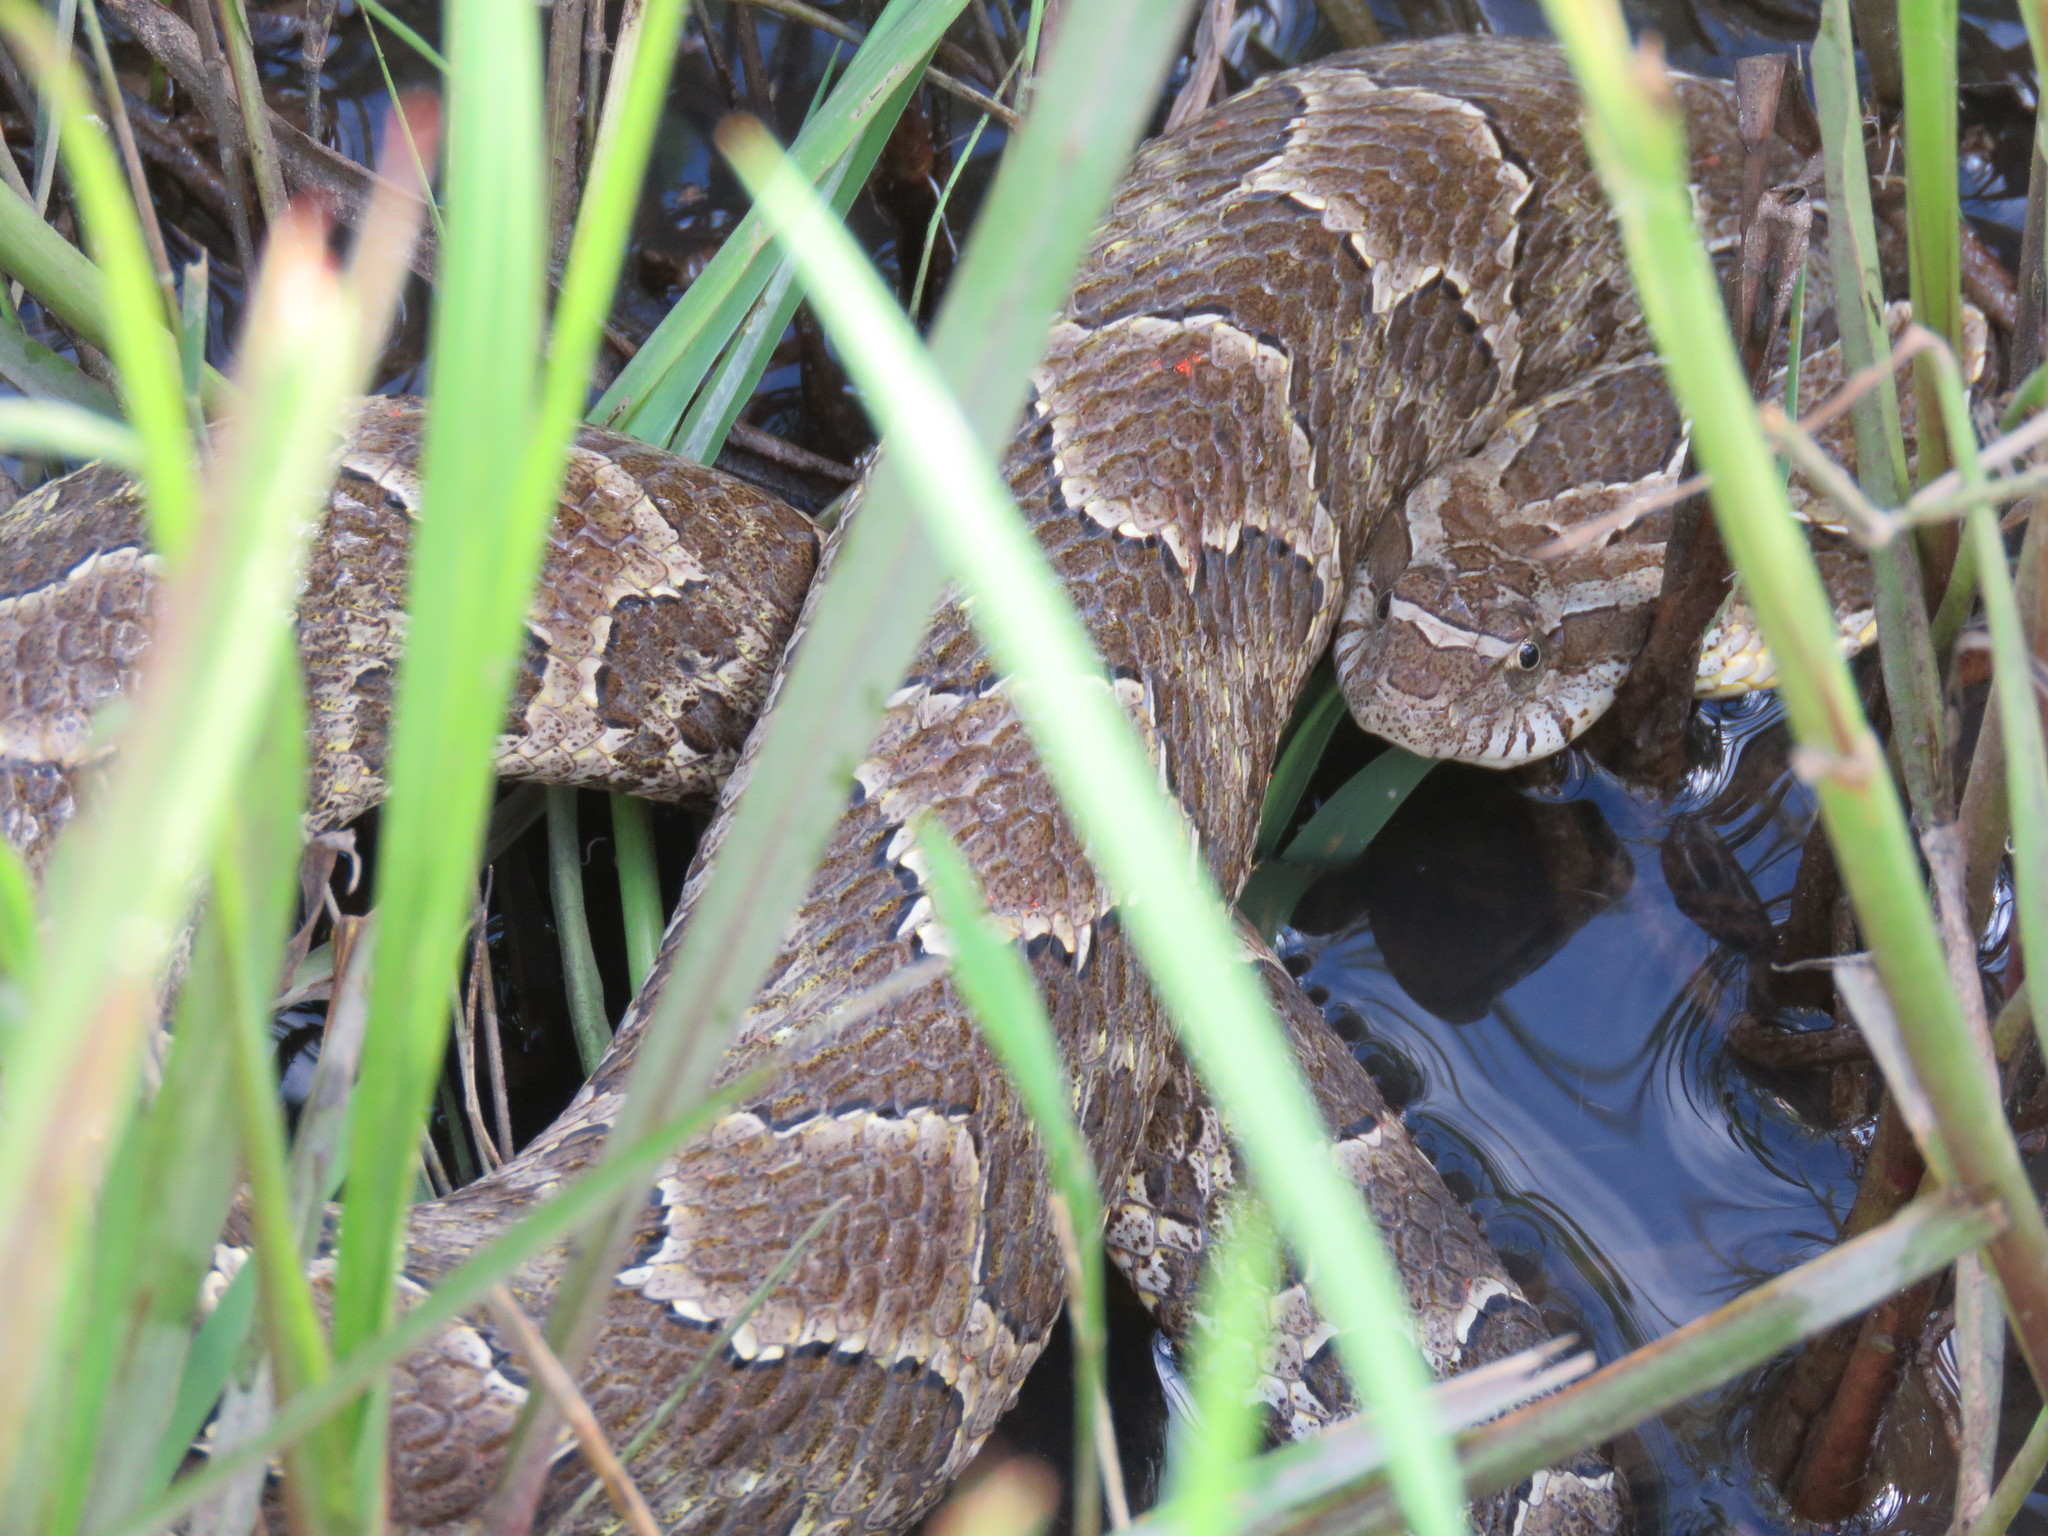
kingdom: Animalia
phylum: Chordata
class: Squamata
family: Colubridae
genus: Xenodon
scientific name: Xenodon merremii
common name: Wagler's snake
